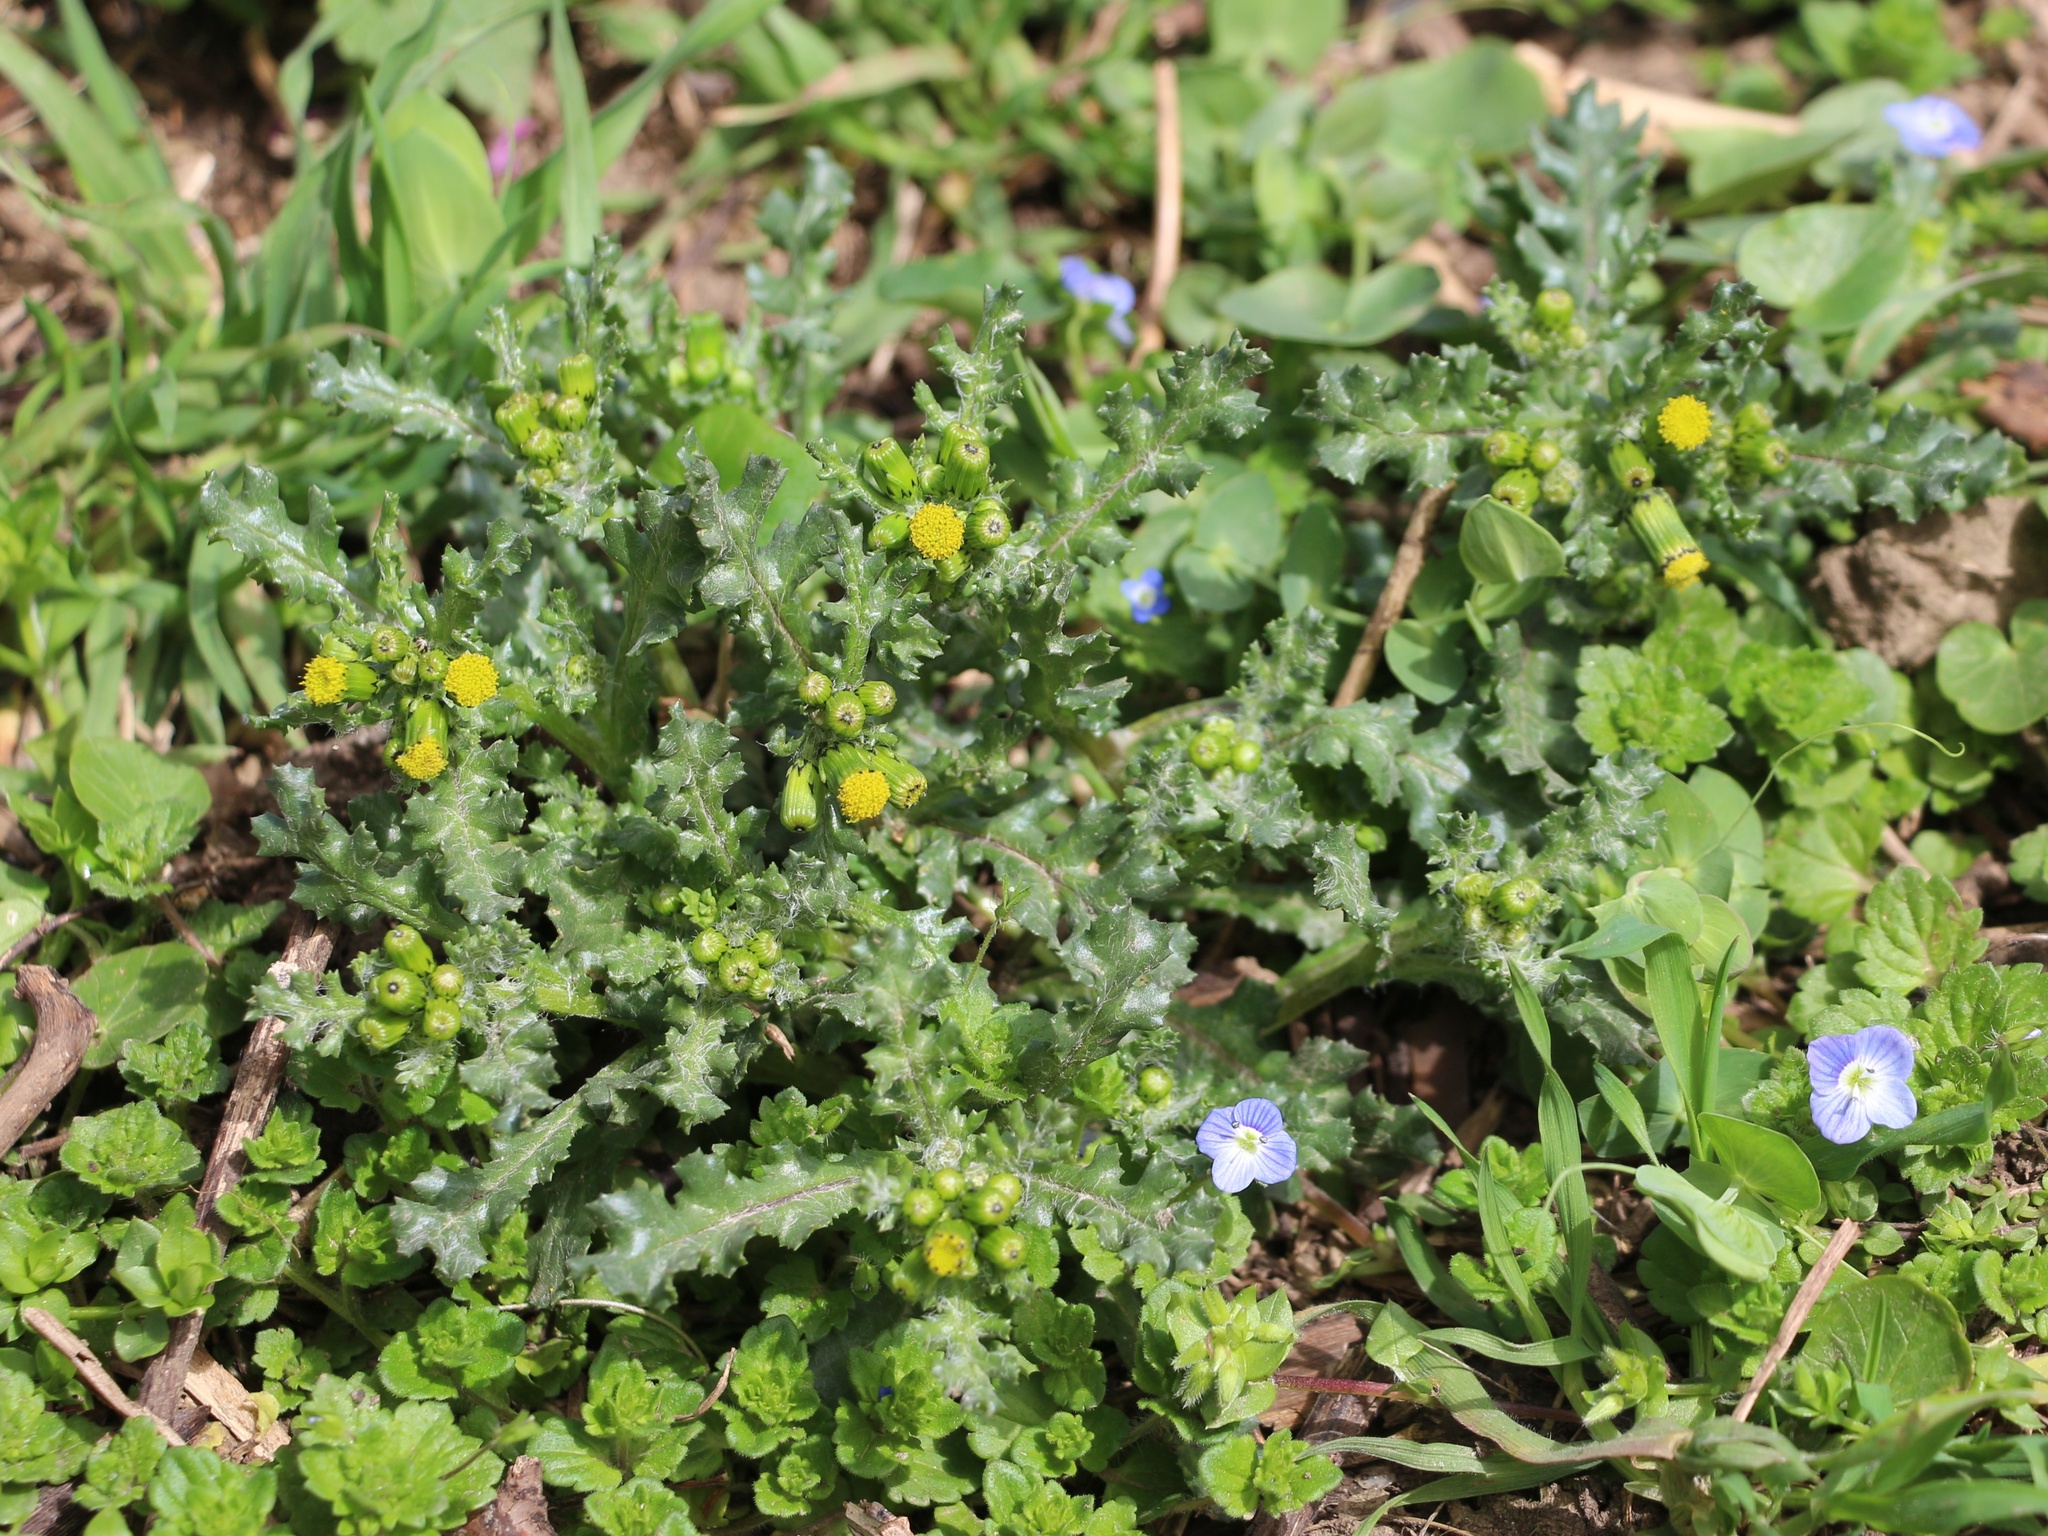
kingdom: Plantae
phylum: Tracheophyta
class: Magnoliopsida
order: Asterales
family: Asteraceae
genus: Senecio
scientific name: Senecio vulgaris
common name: Old-man-in-the-spring
